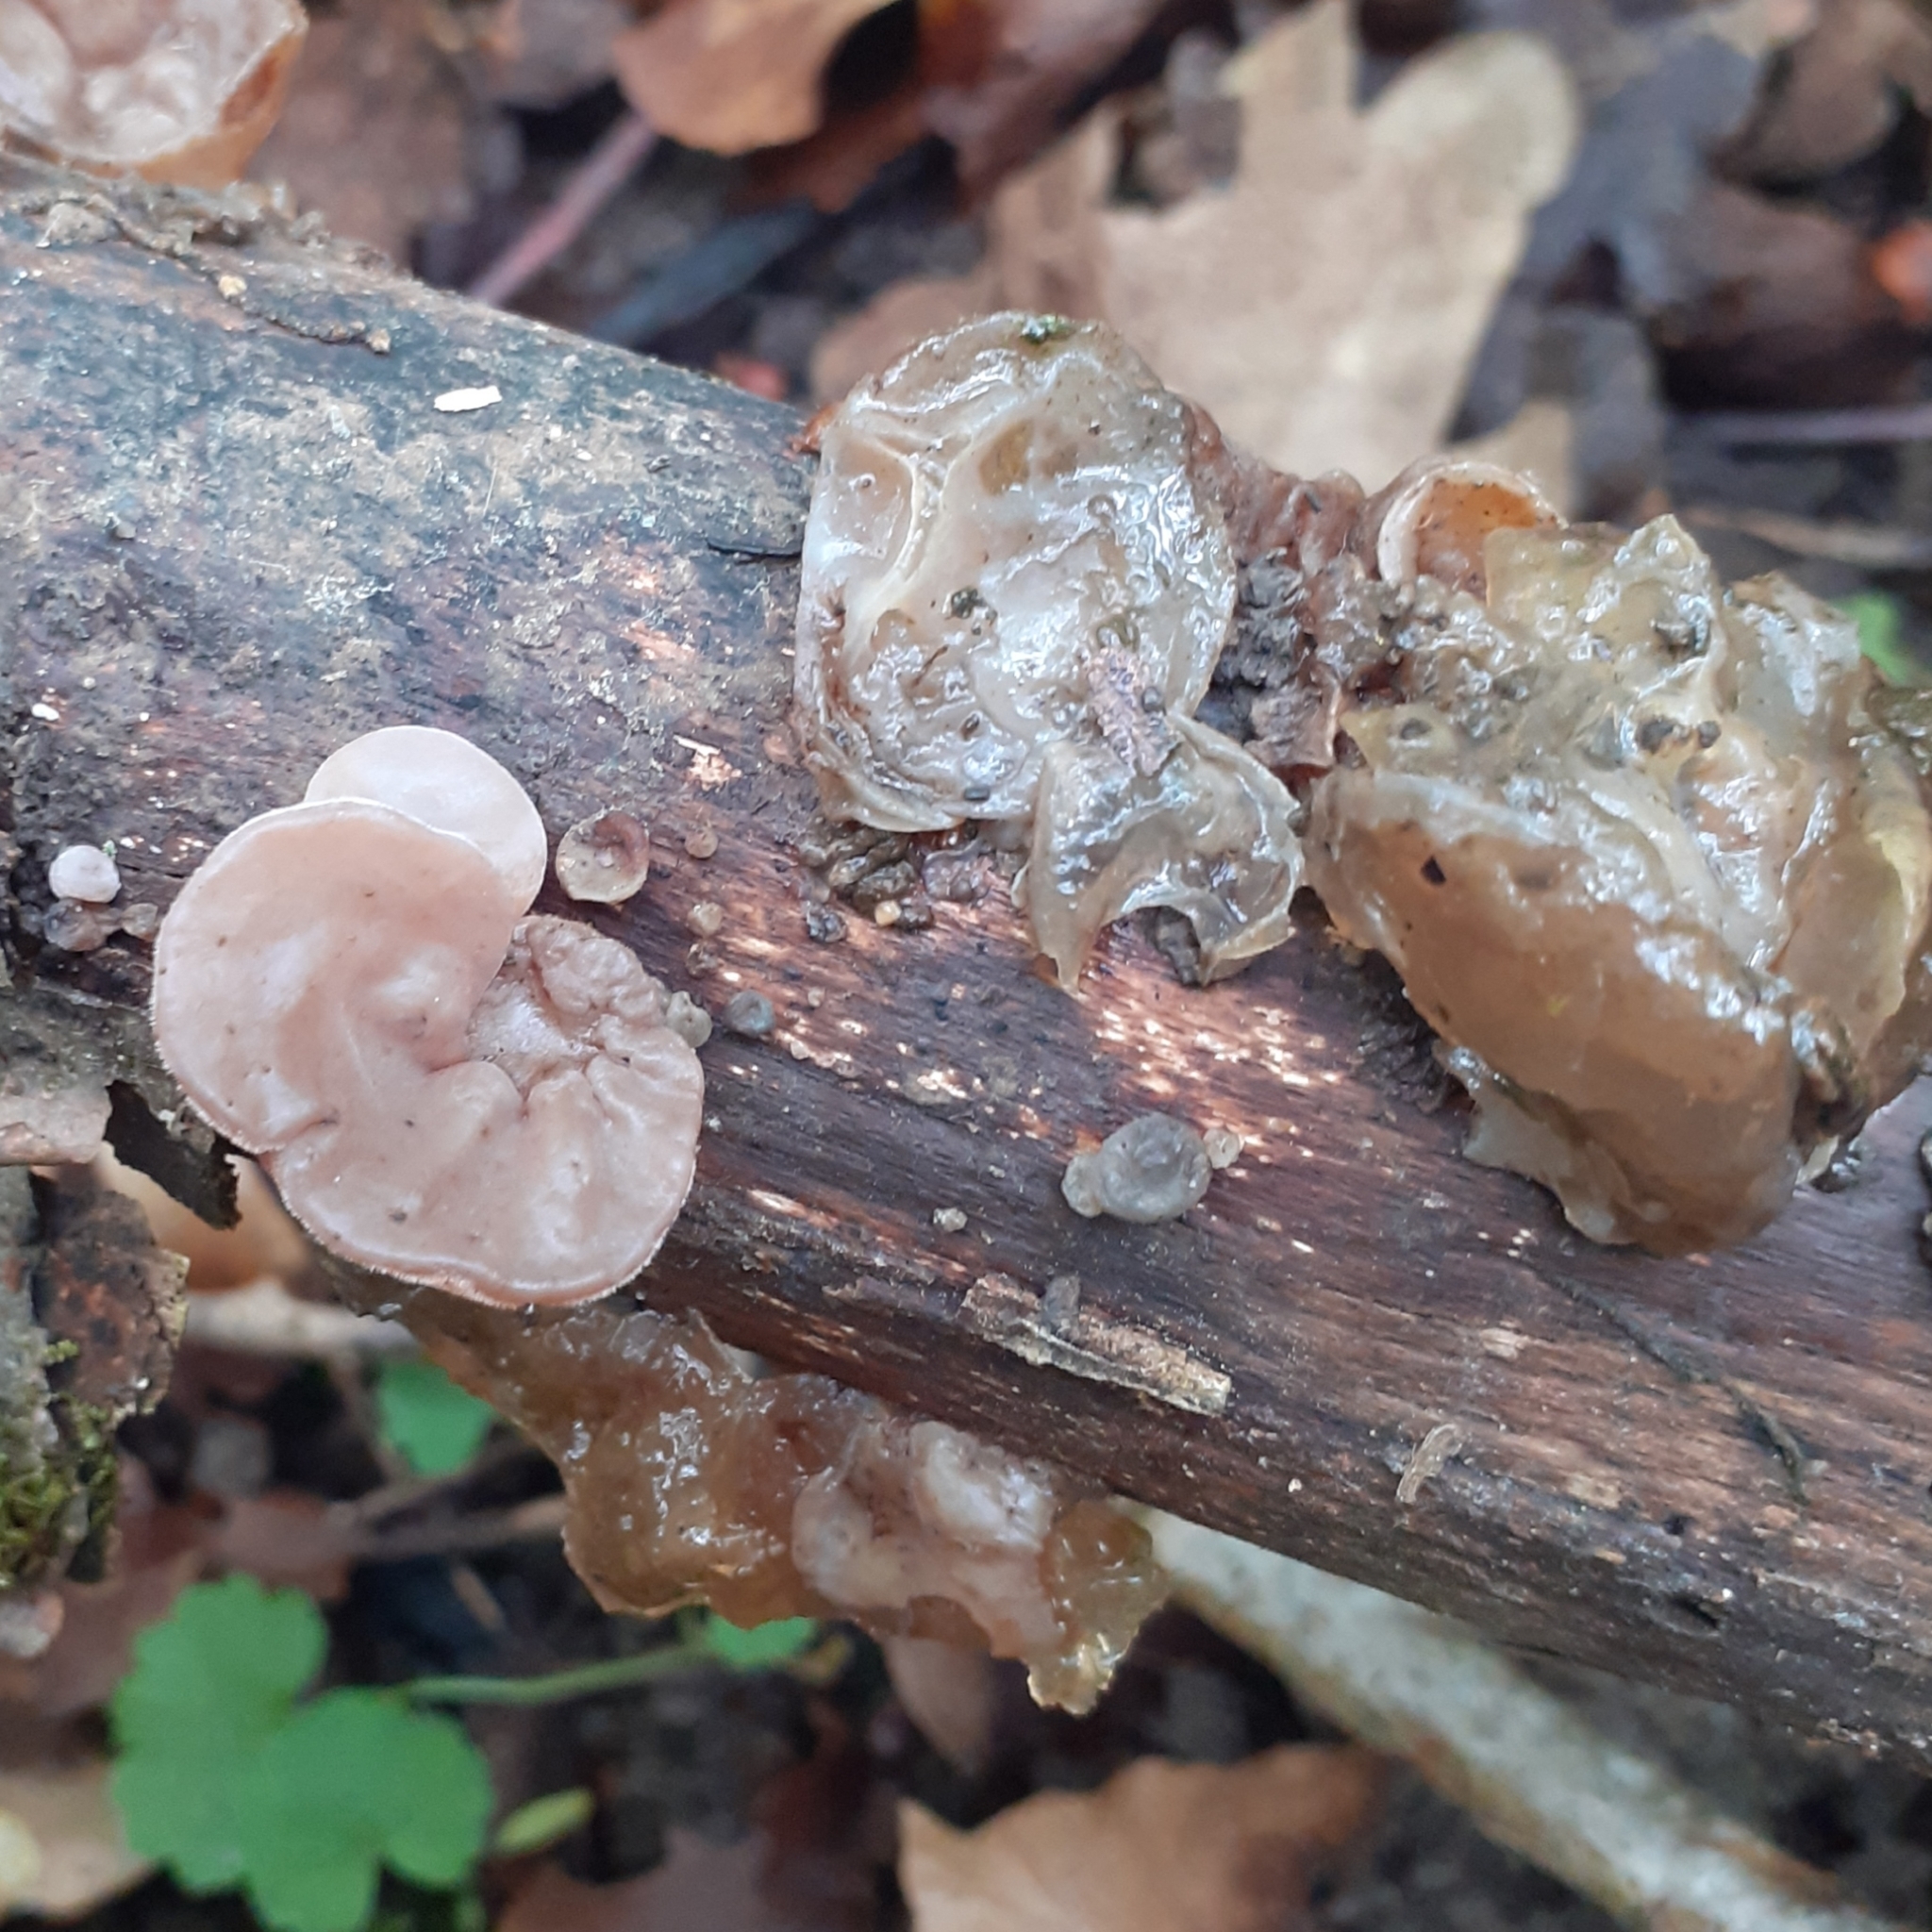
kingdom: Fungi
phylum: Basidiomycota
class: Agaricomycetes
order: Auriculariales
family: Auriculariaceae
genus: Auricularia
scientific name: Auricularia auricula-judae
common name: Jelly ear
